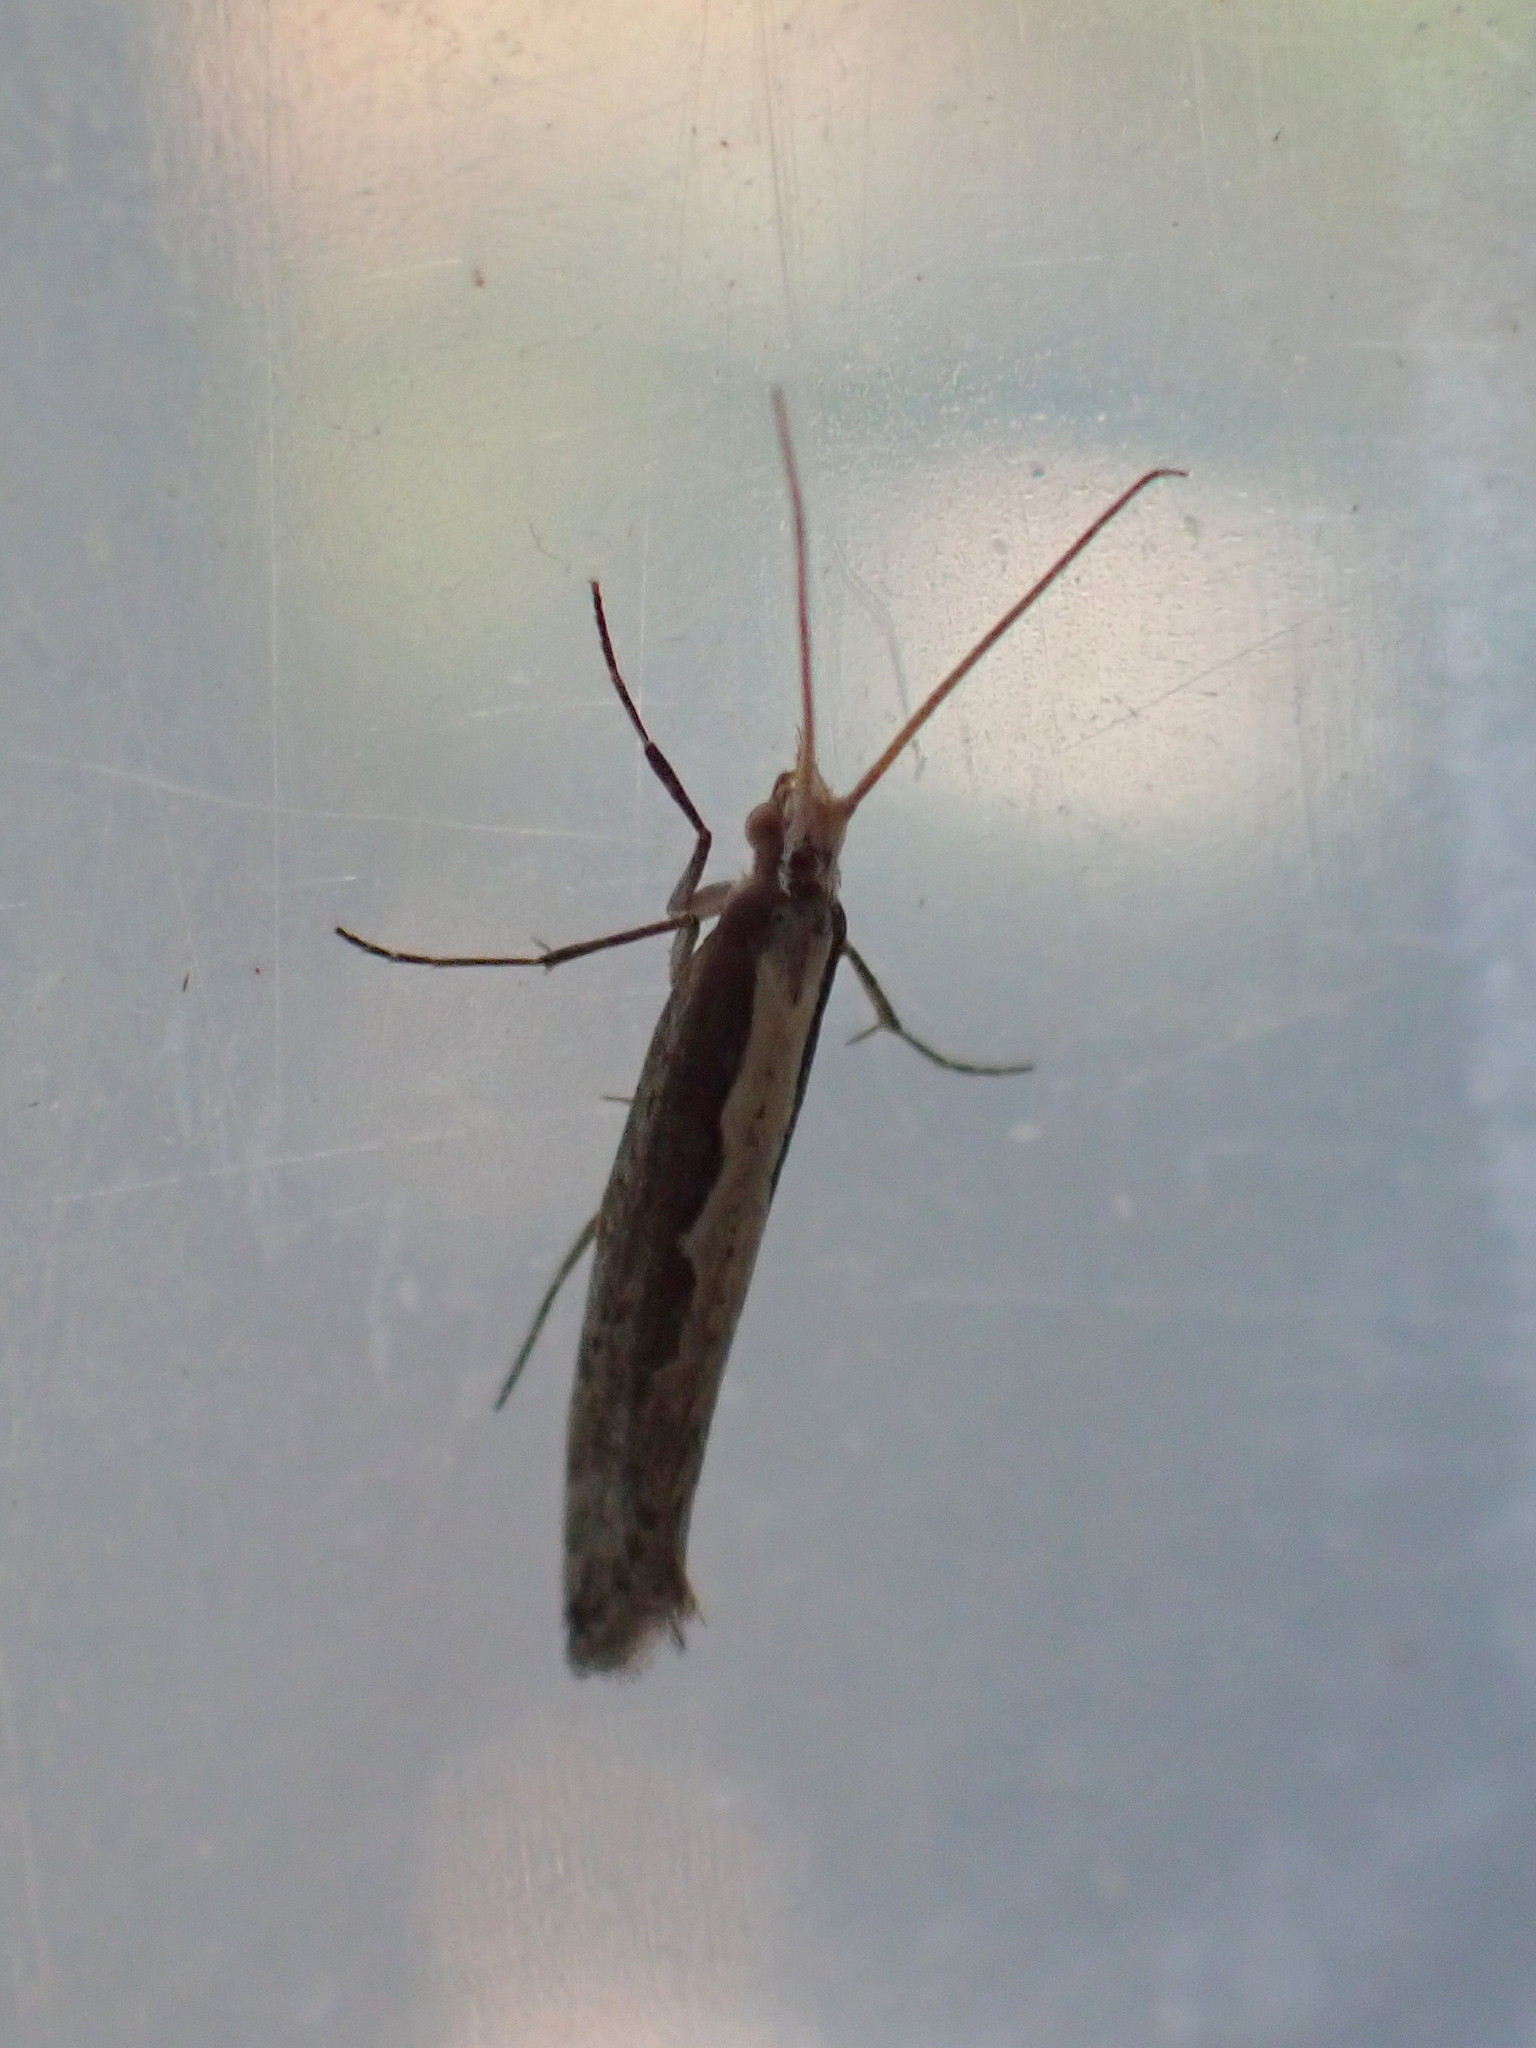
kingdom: Animalia
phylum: Arthropoda
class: Insecta
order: Lepidoptera
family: Plutellidae
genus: Plutella
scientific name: Plutella xylostella
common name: Diamond-back moth
